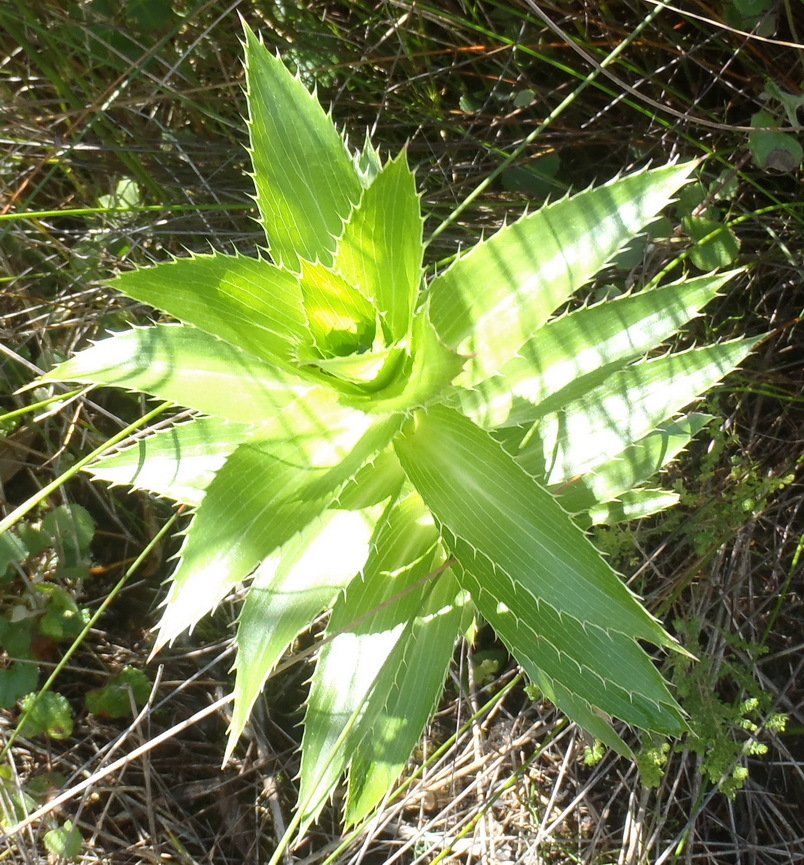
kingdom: Plantae
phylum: Tracheophyta
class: Magnoliopsida
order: Rosales
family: Rosaceae
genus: Cliffortia
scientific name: Cliffortia grandifolia
